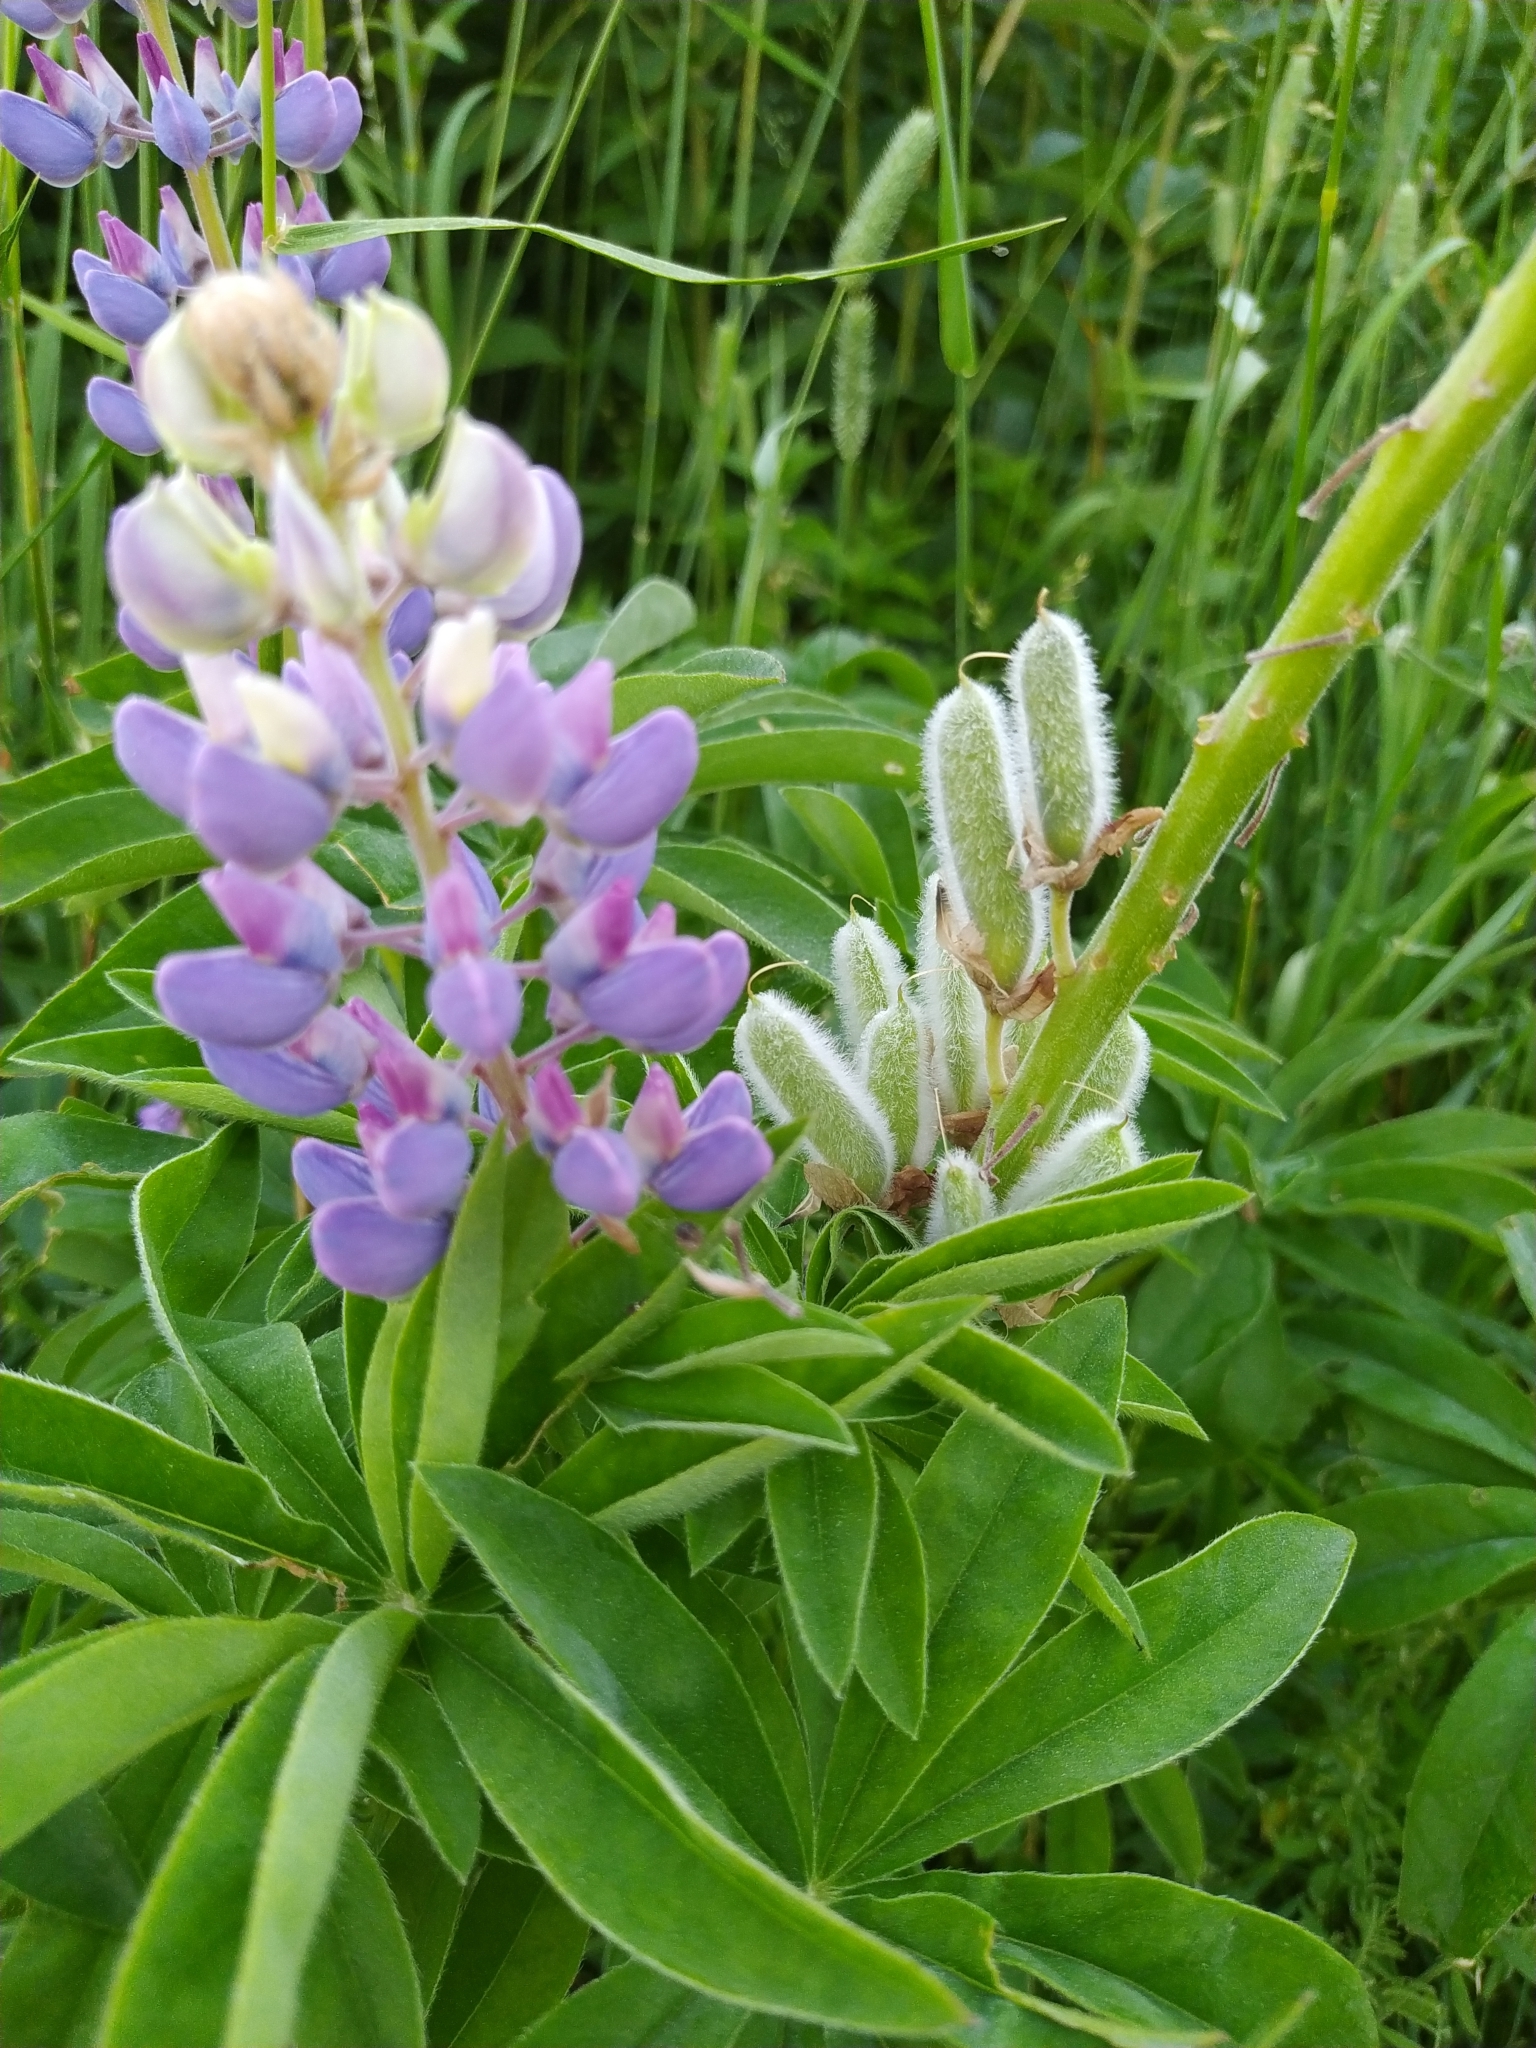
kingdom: Plantae
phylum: Tracheophyta
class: Magnoliopsida
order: Fabales
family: Fabaceae
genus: Lupinus
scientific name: Lupinus nootkatensis
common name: Nootka lupine
